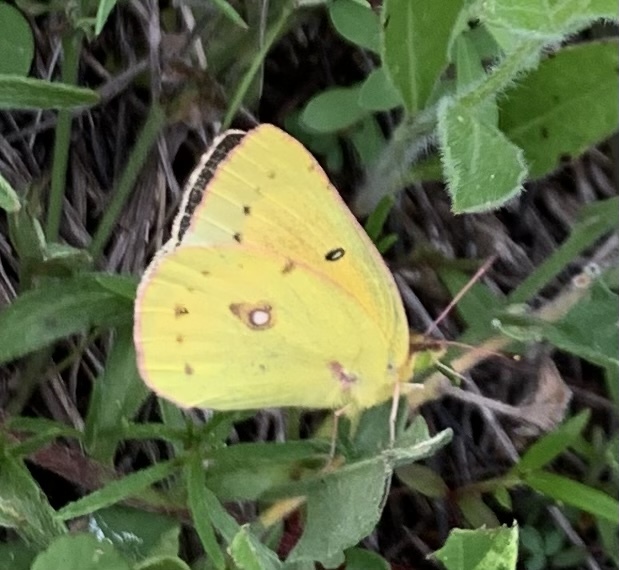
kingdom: Animalia
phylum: Arthropoda
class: Insecta
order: Lepidoptera
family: Pieridae
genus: Colias
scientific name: Colias eurytheme
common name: Alfalfa butterfly
